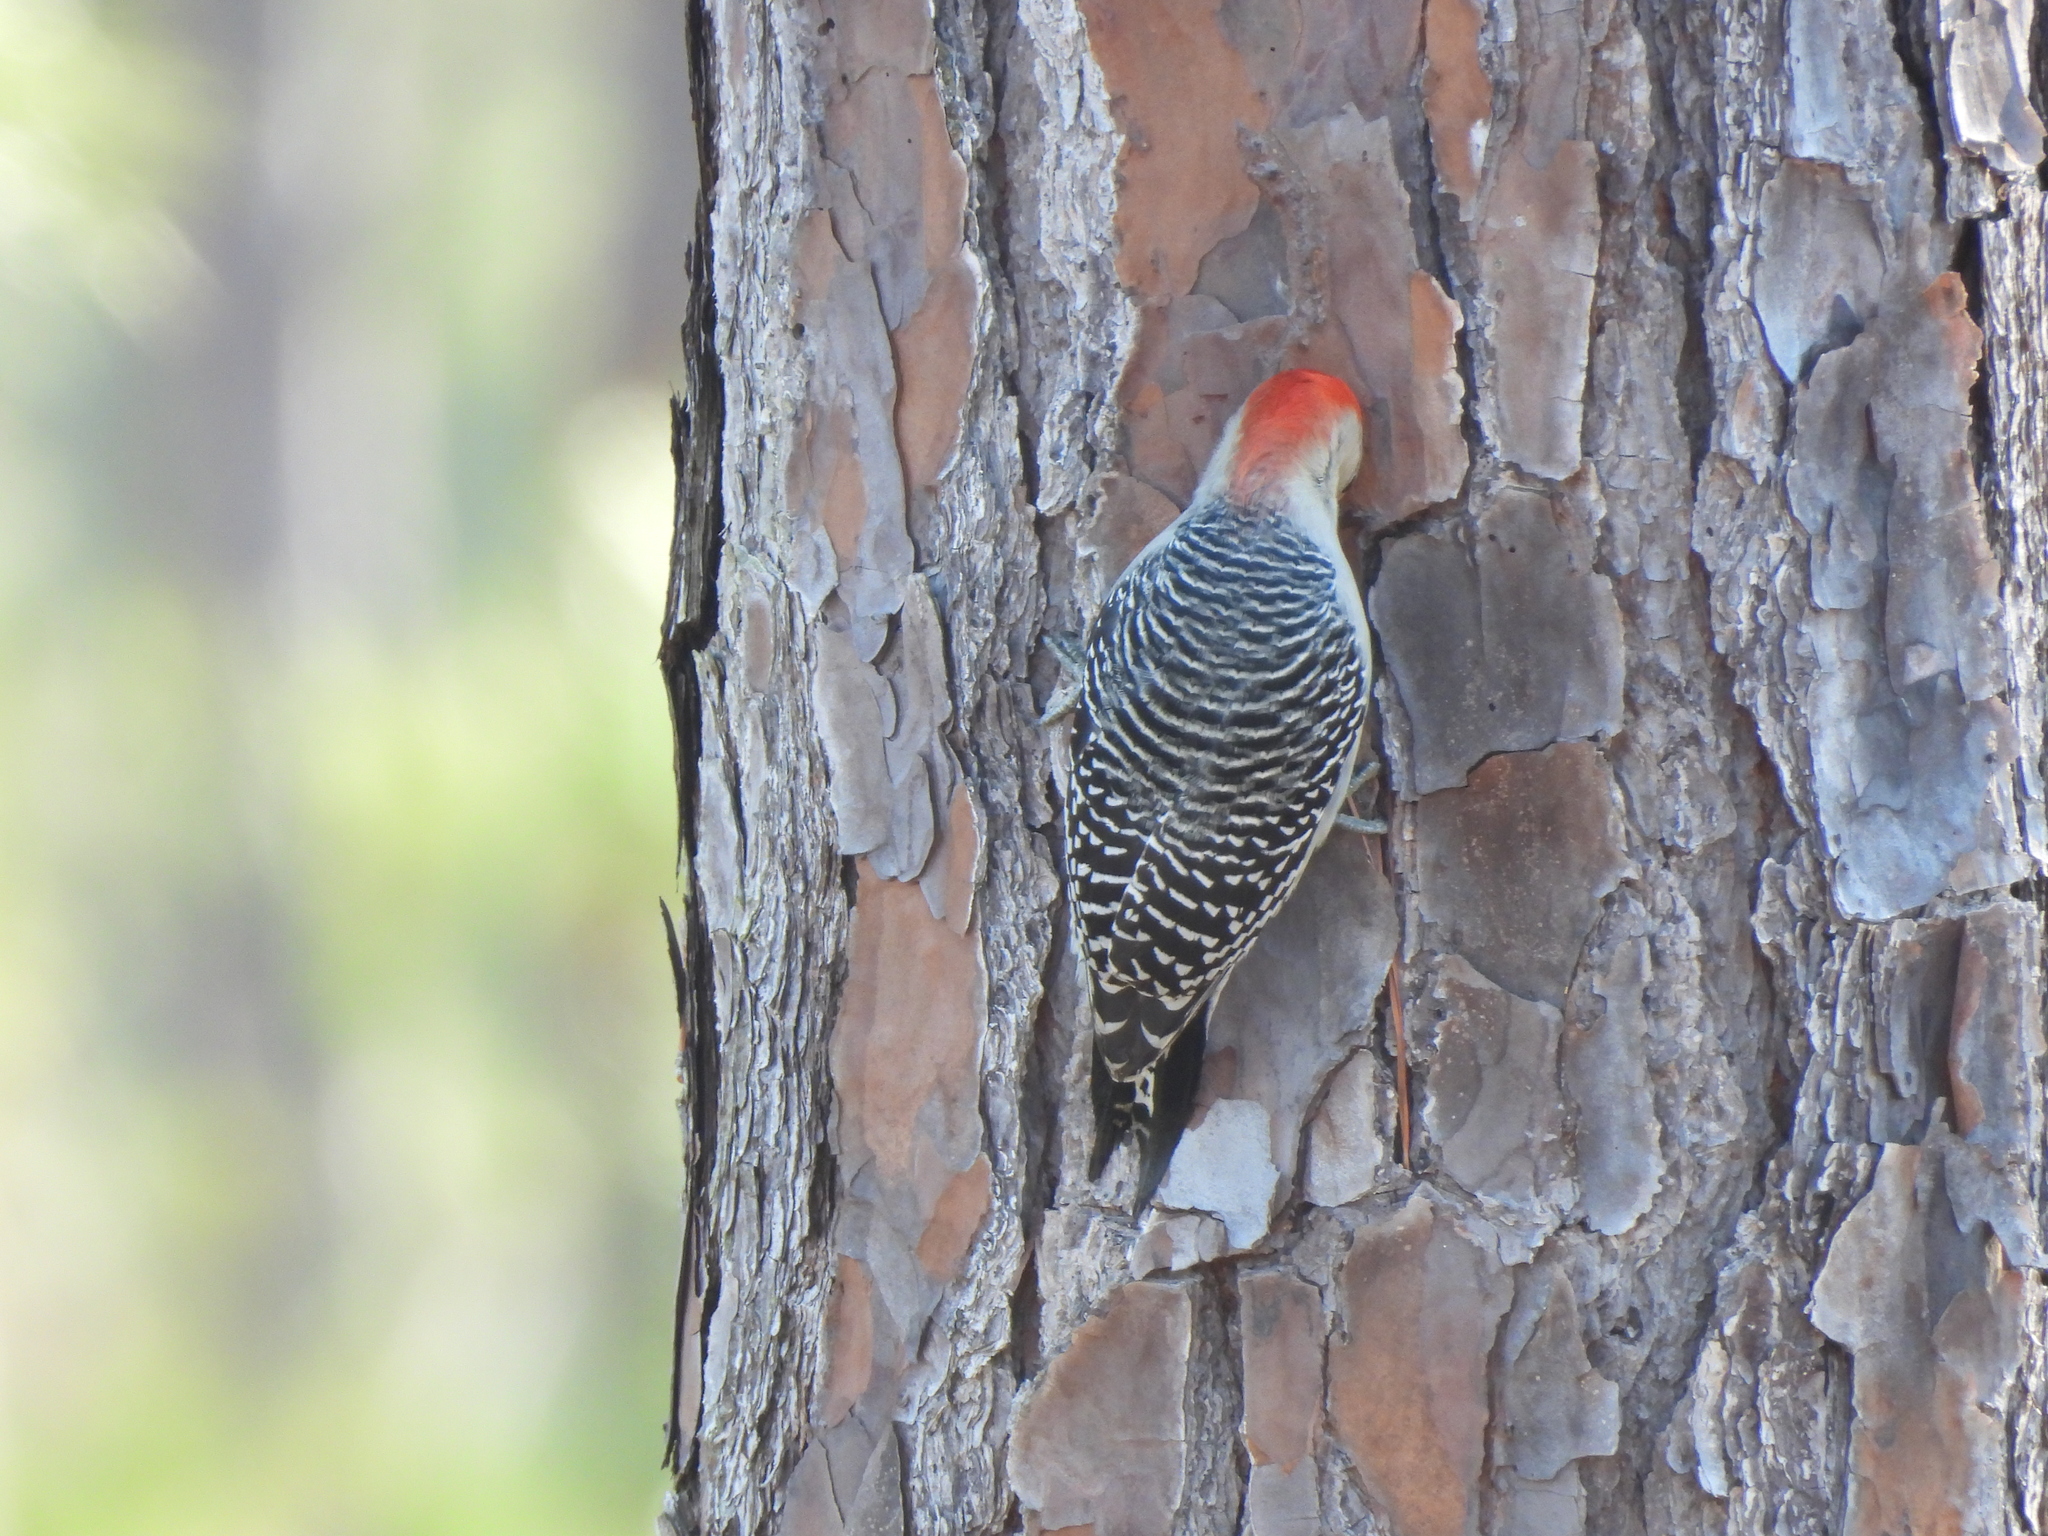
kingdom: Animalia
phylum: Chordata
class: Aves
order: Piciformes
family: Picidae
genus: Melanerpes
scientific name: Melanerpes carolinus
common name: Red-bellied woodpecker
